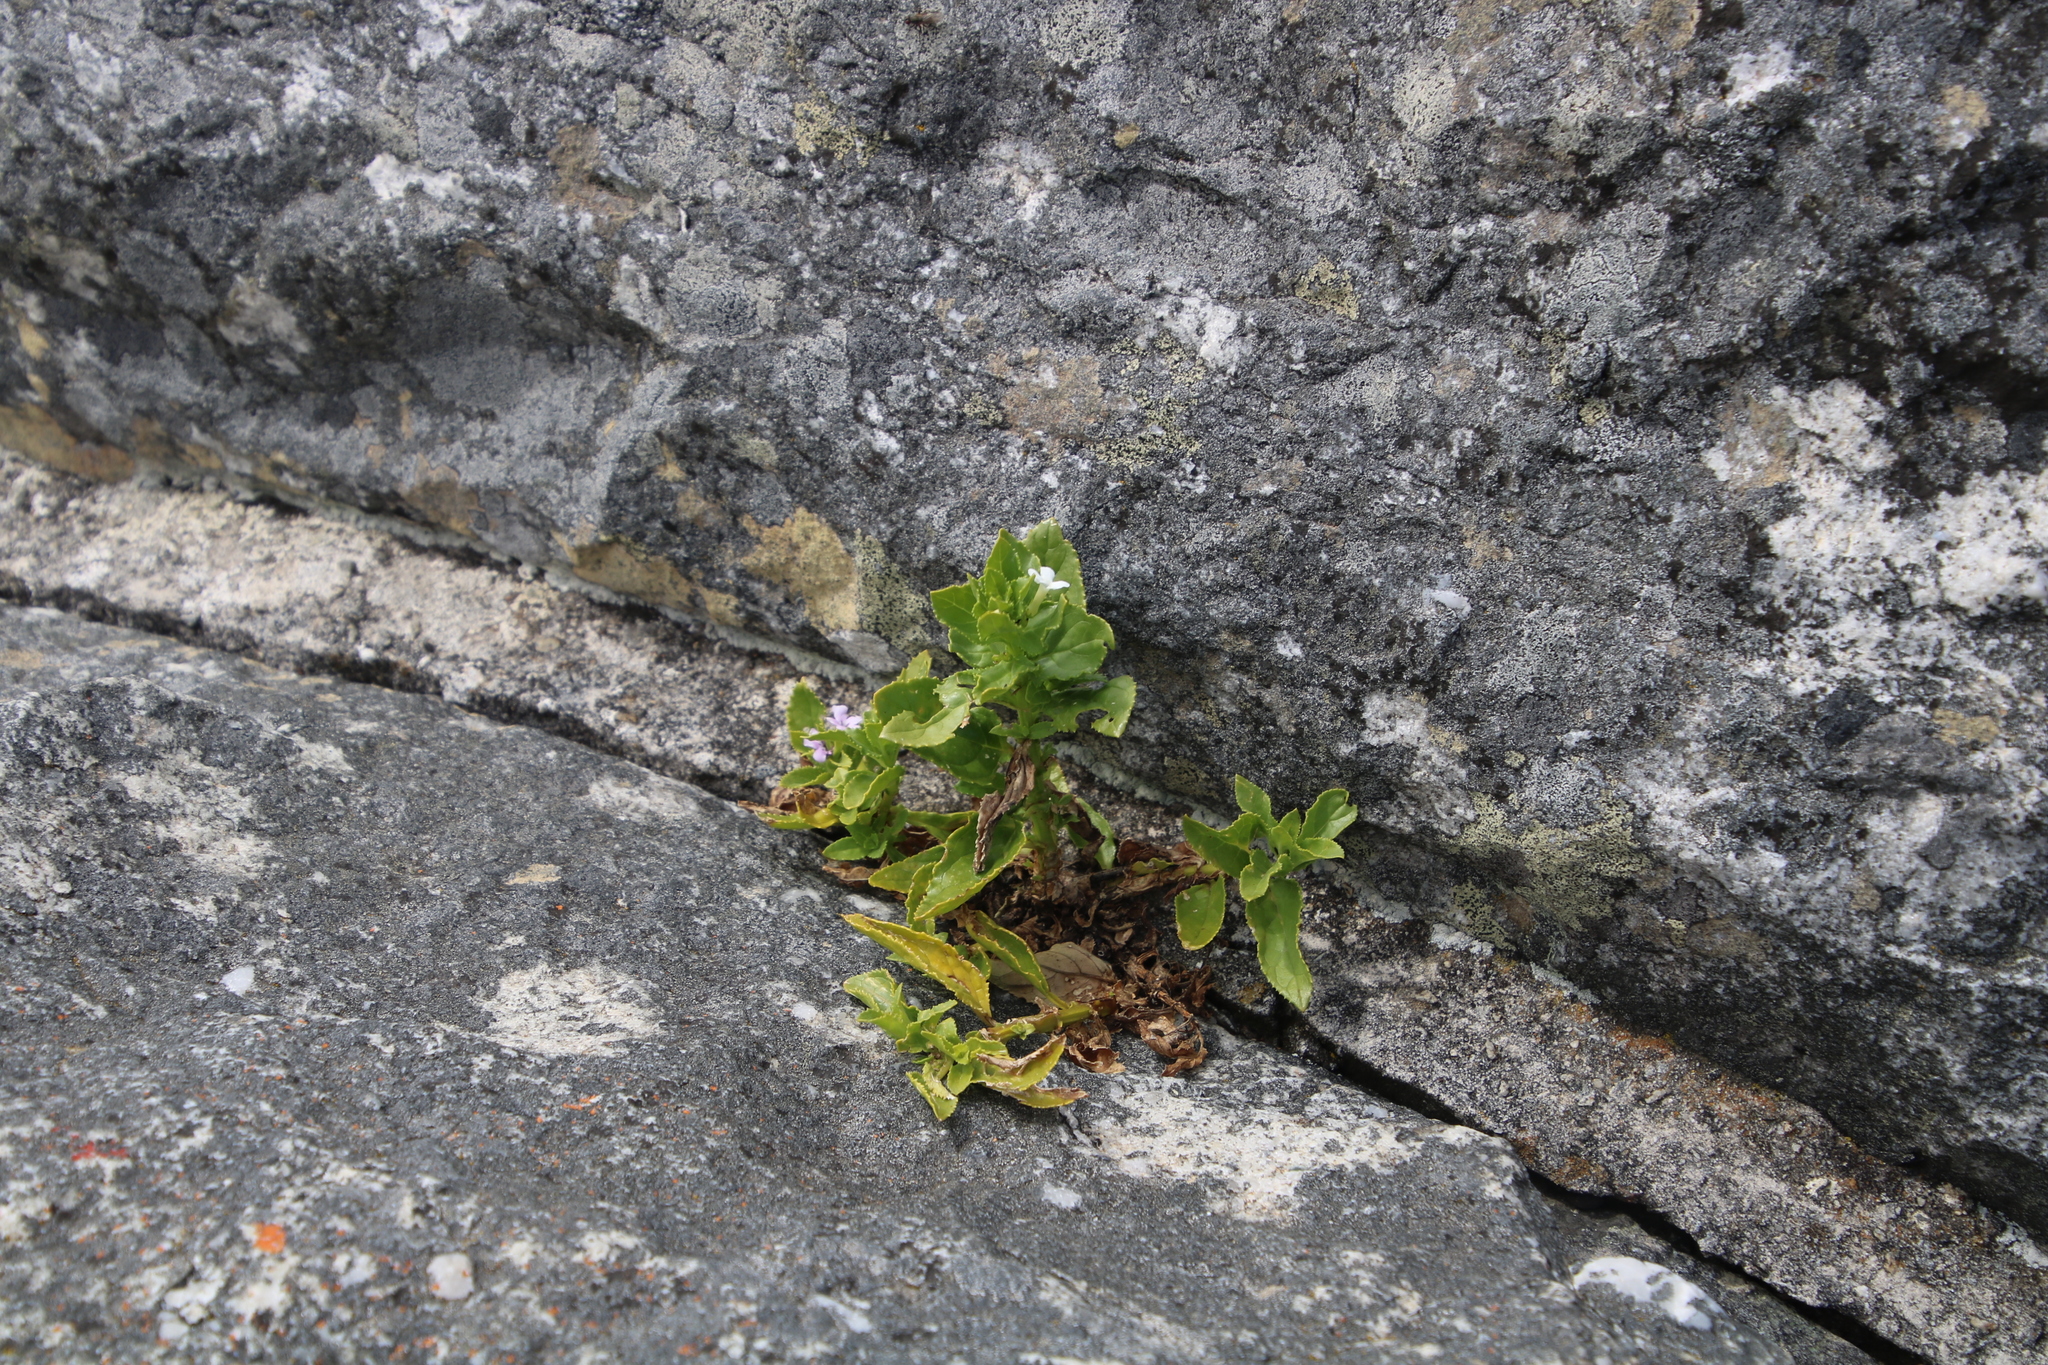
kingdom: Plantae
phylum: Tracheophyta
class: Magnoliopsida
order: Lamiales
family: Scrophulariaceae
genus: Teedia
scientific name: Teedia lucida
